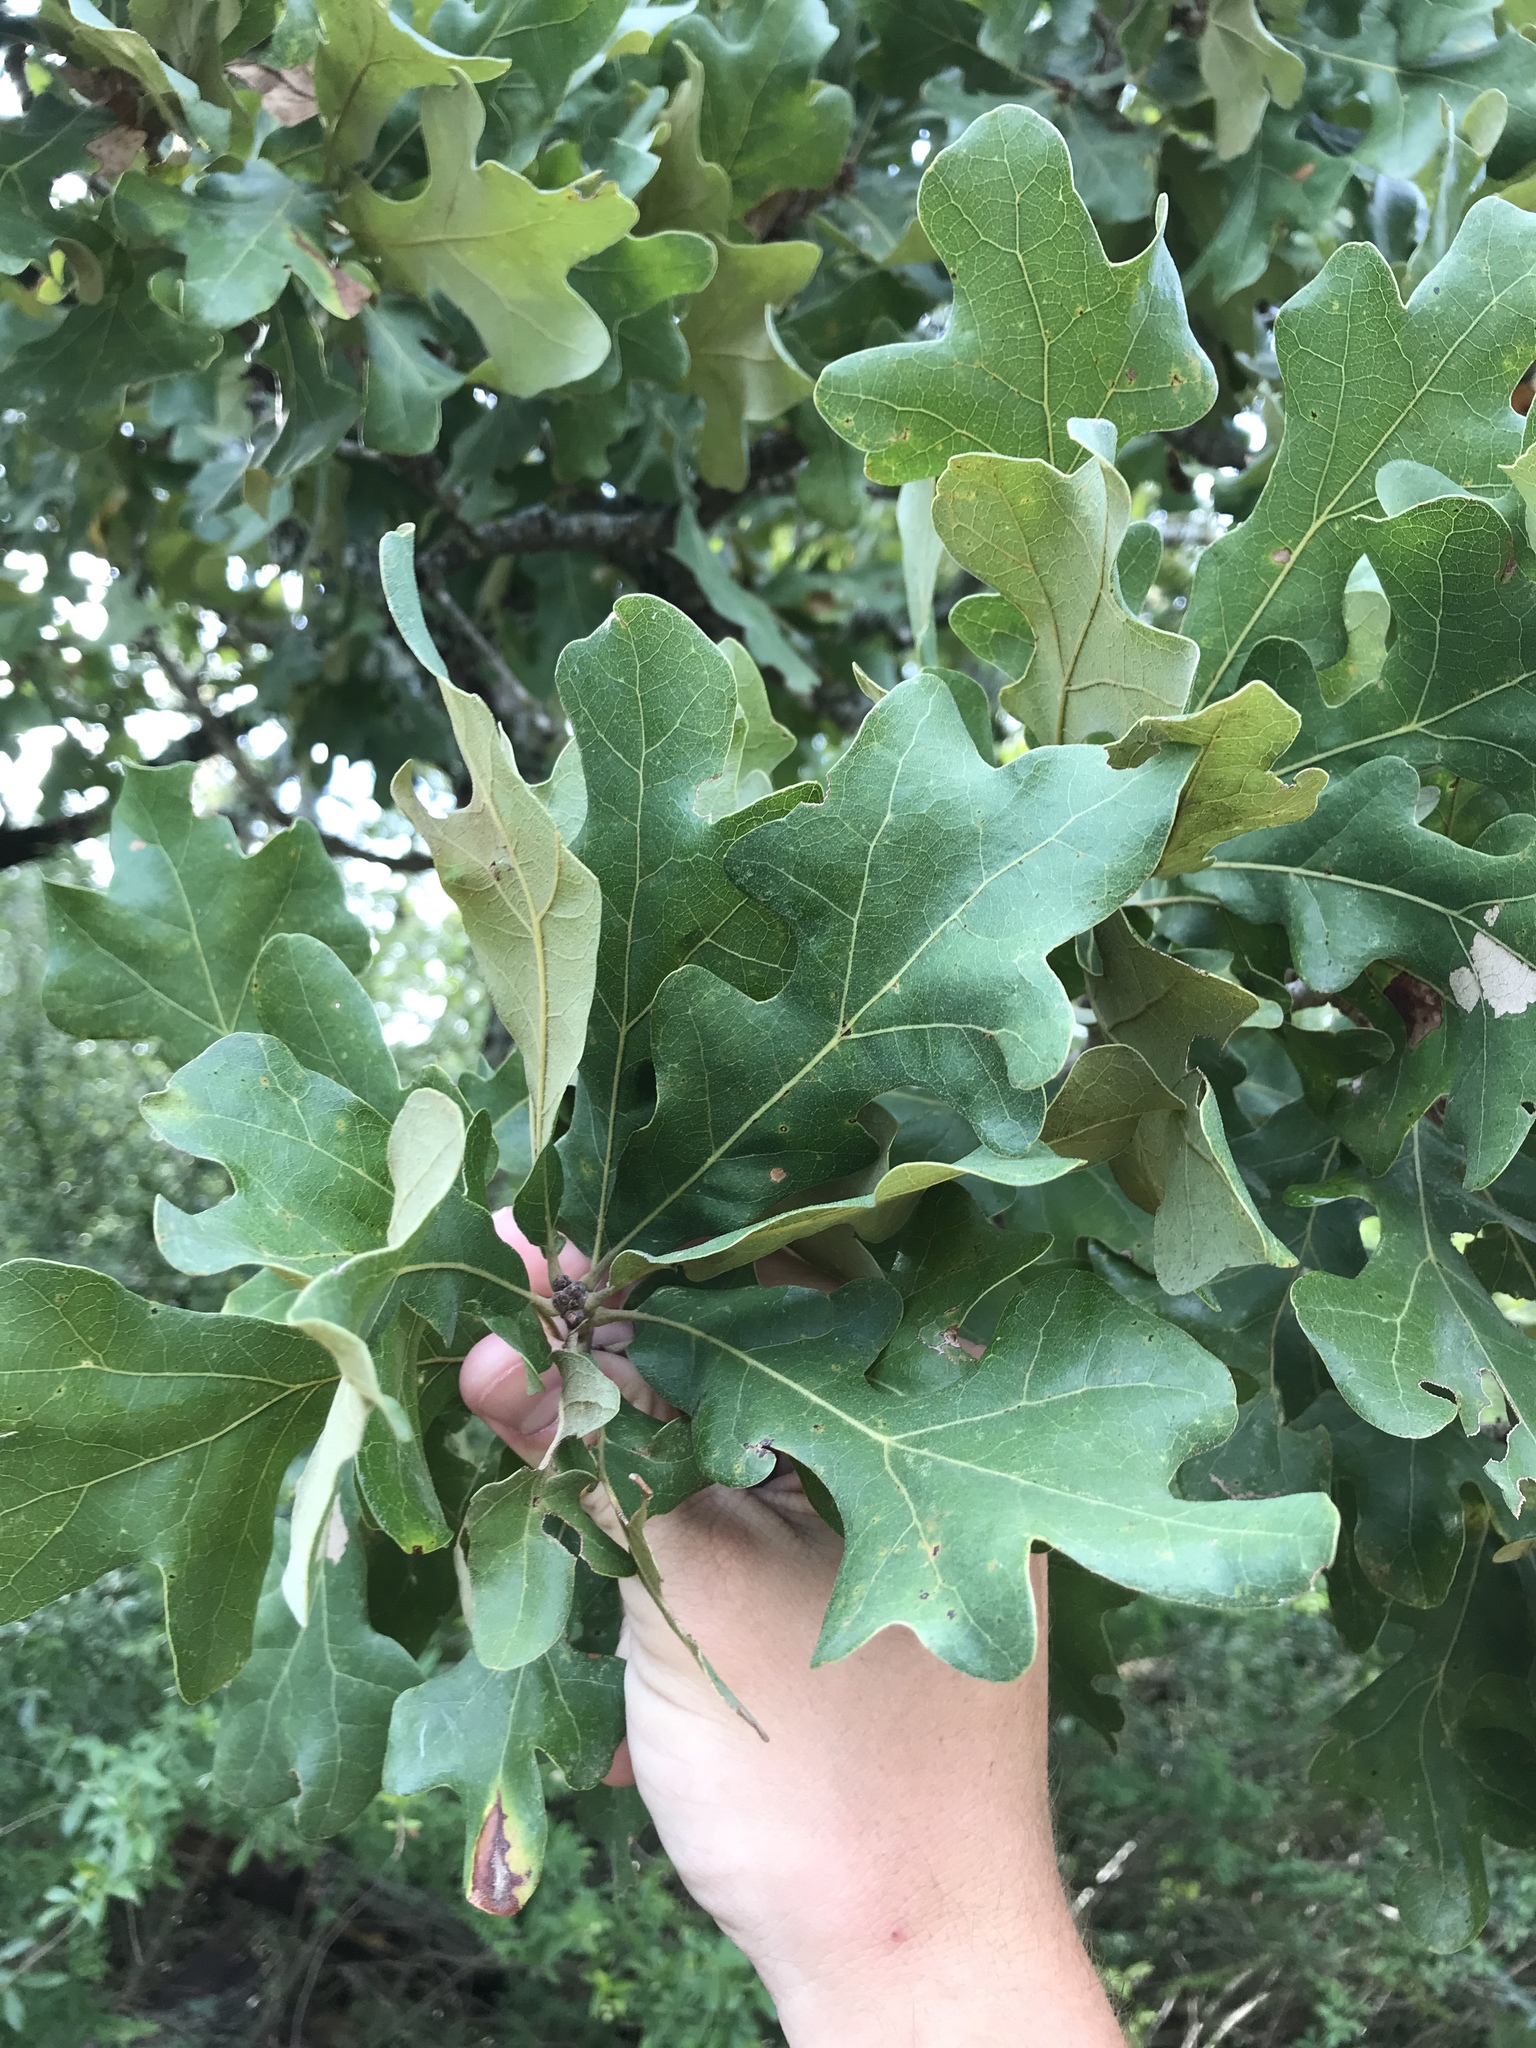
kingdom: Plantae
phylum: Tracheophyta
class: Magnoliopsida
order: Fagales
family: Fagaceae
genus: Quercus
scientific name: Quercus stellata
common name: Post oak
